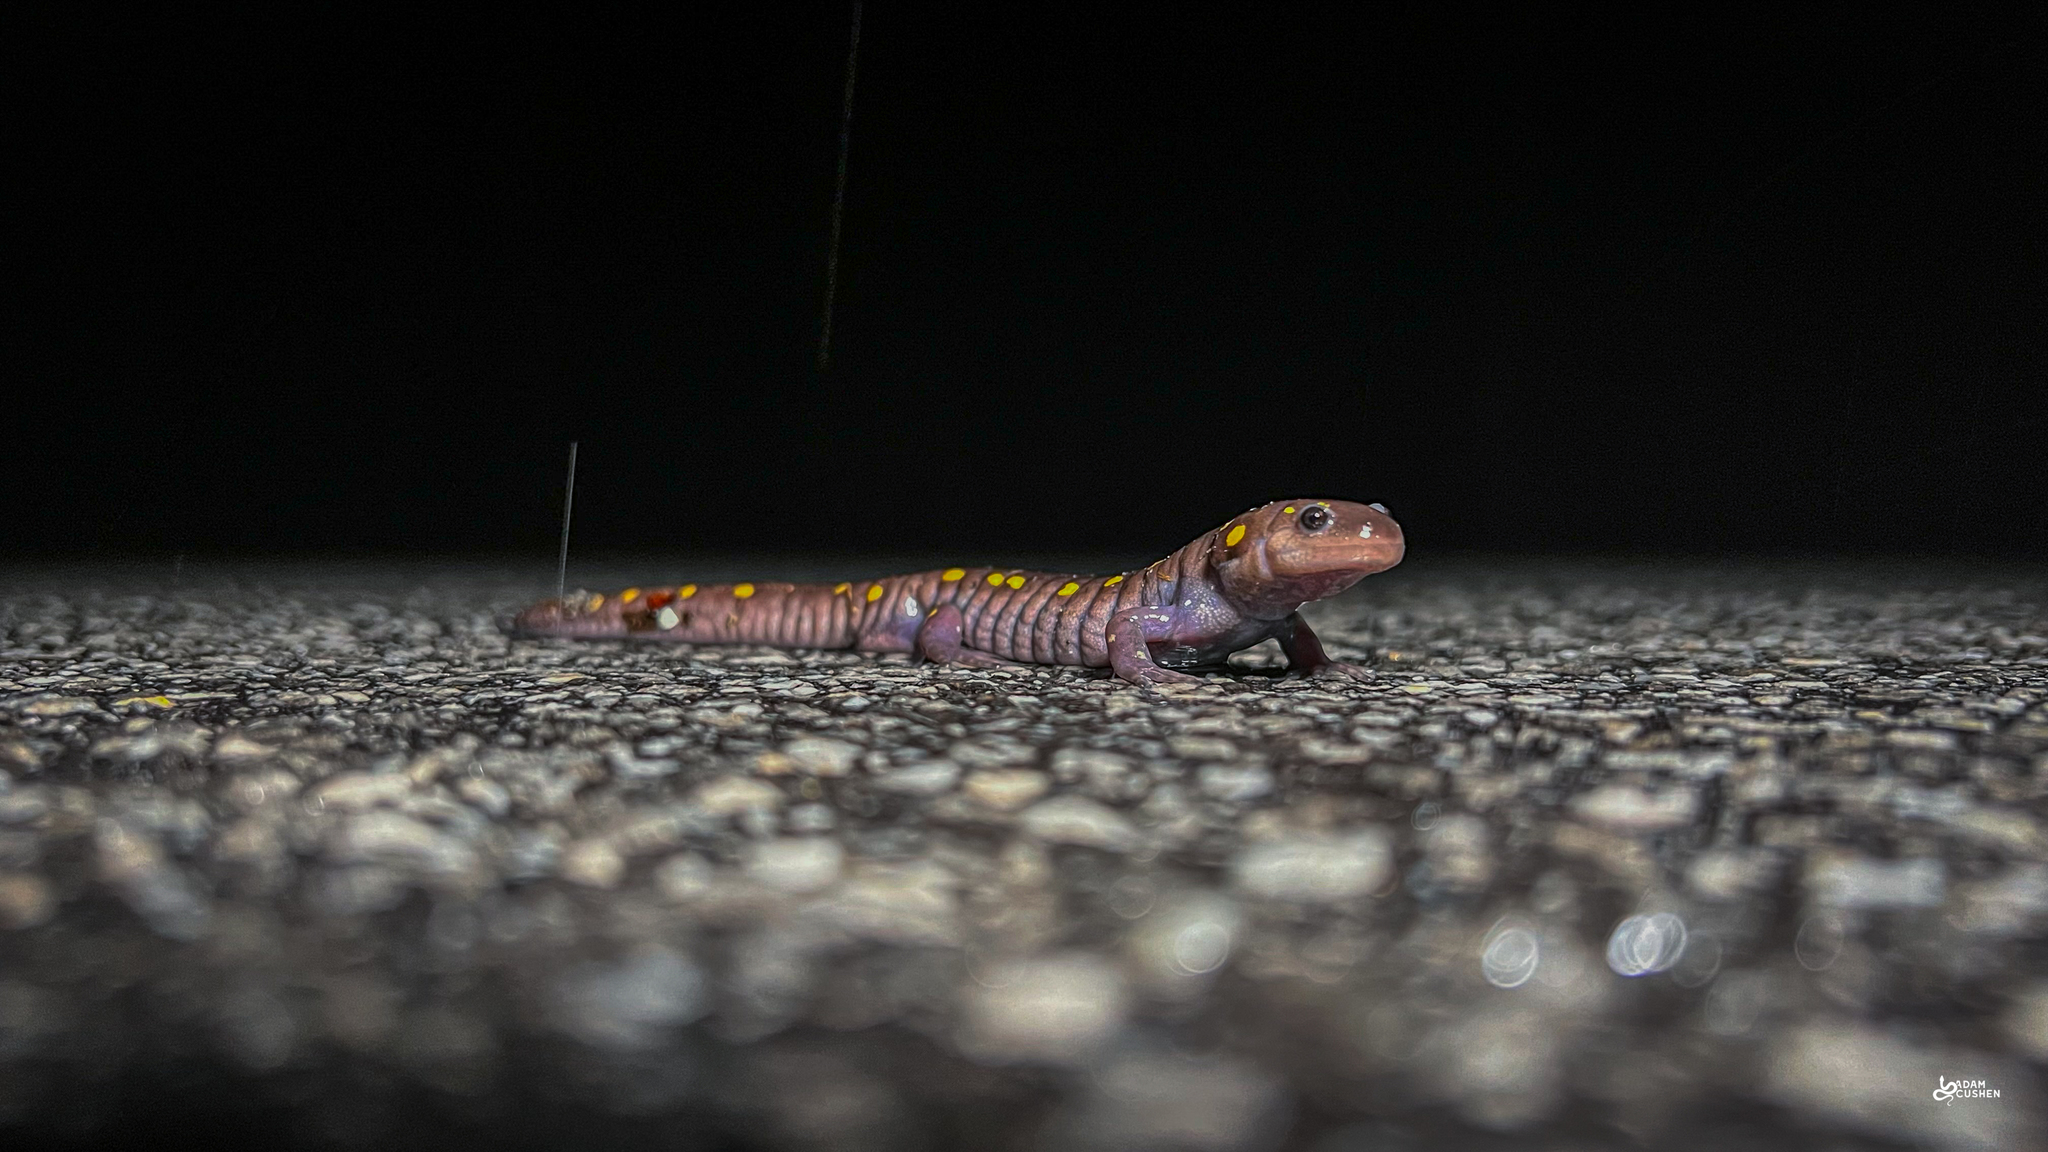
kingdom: Animalia
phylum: Chordata
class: Amphibia
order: Caudata
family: Ambystomatidae
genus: Ambystoma
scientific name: Ambystoma maculatum
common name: Spotted salamander
